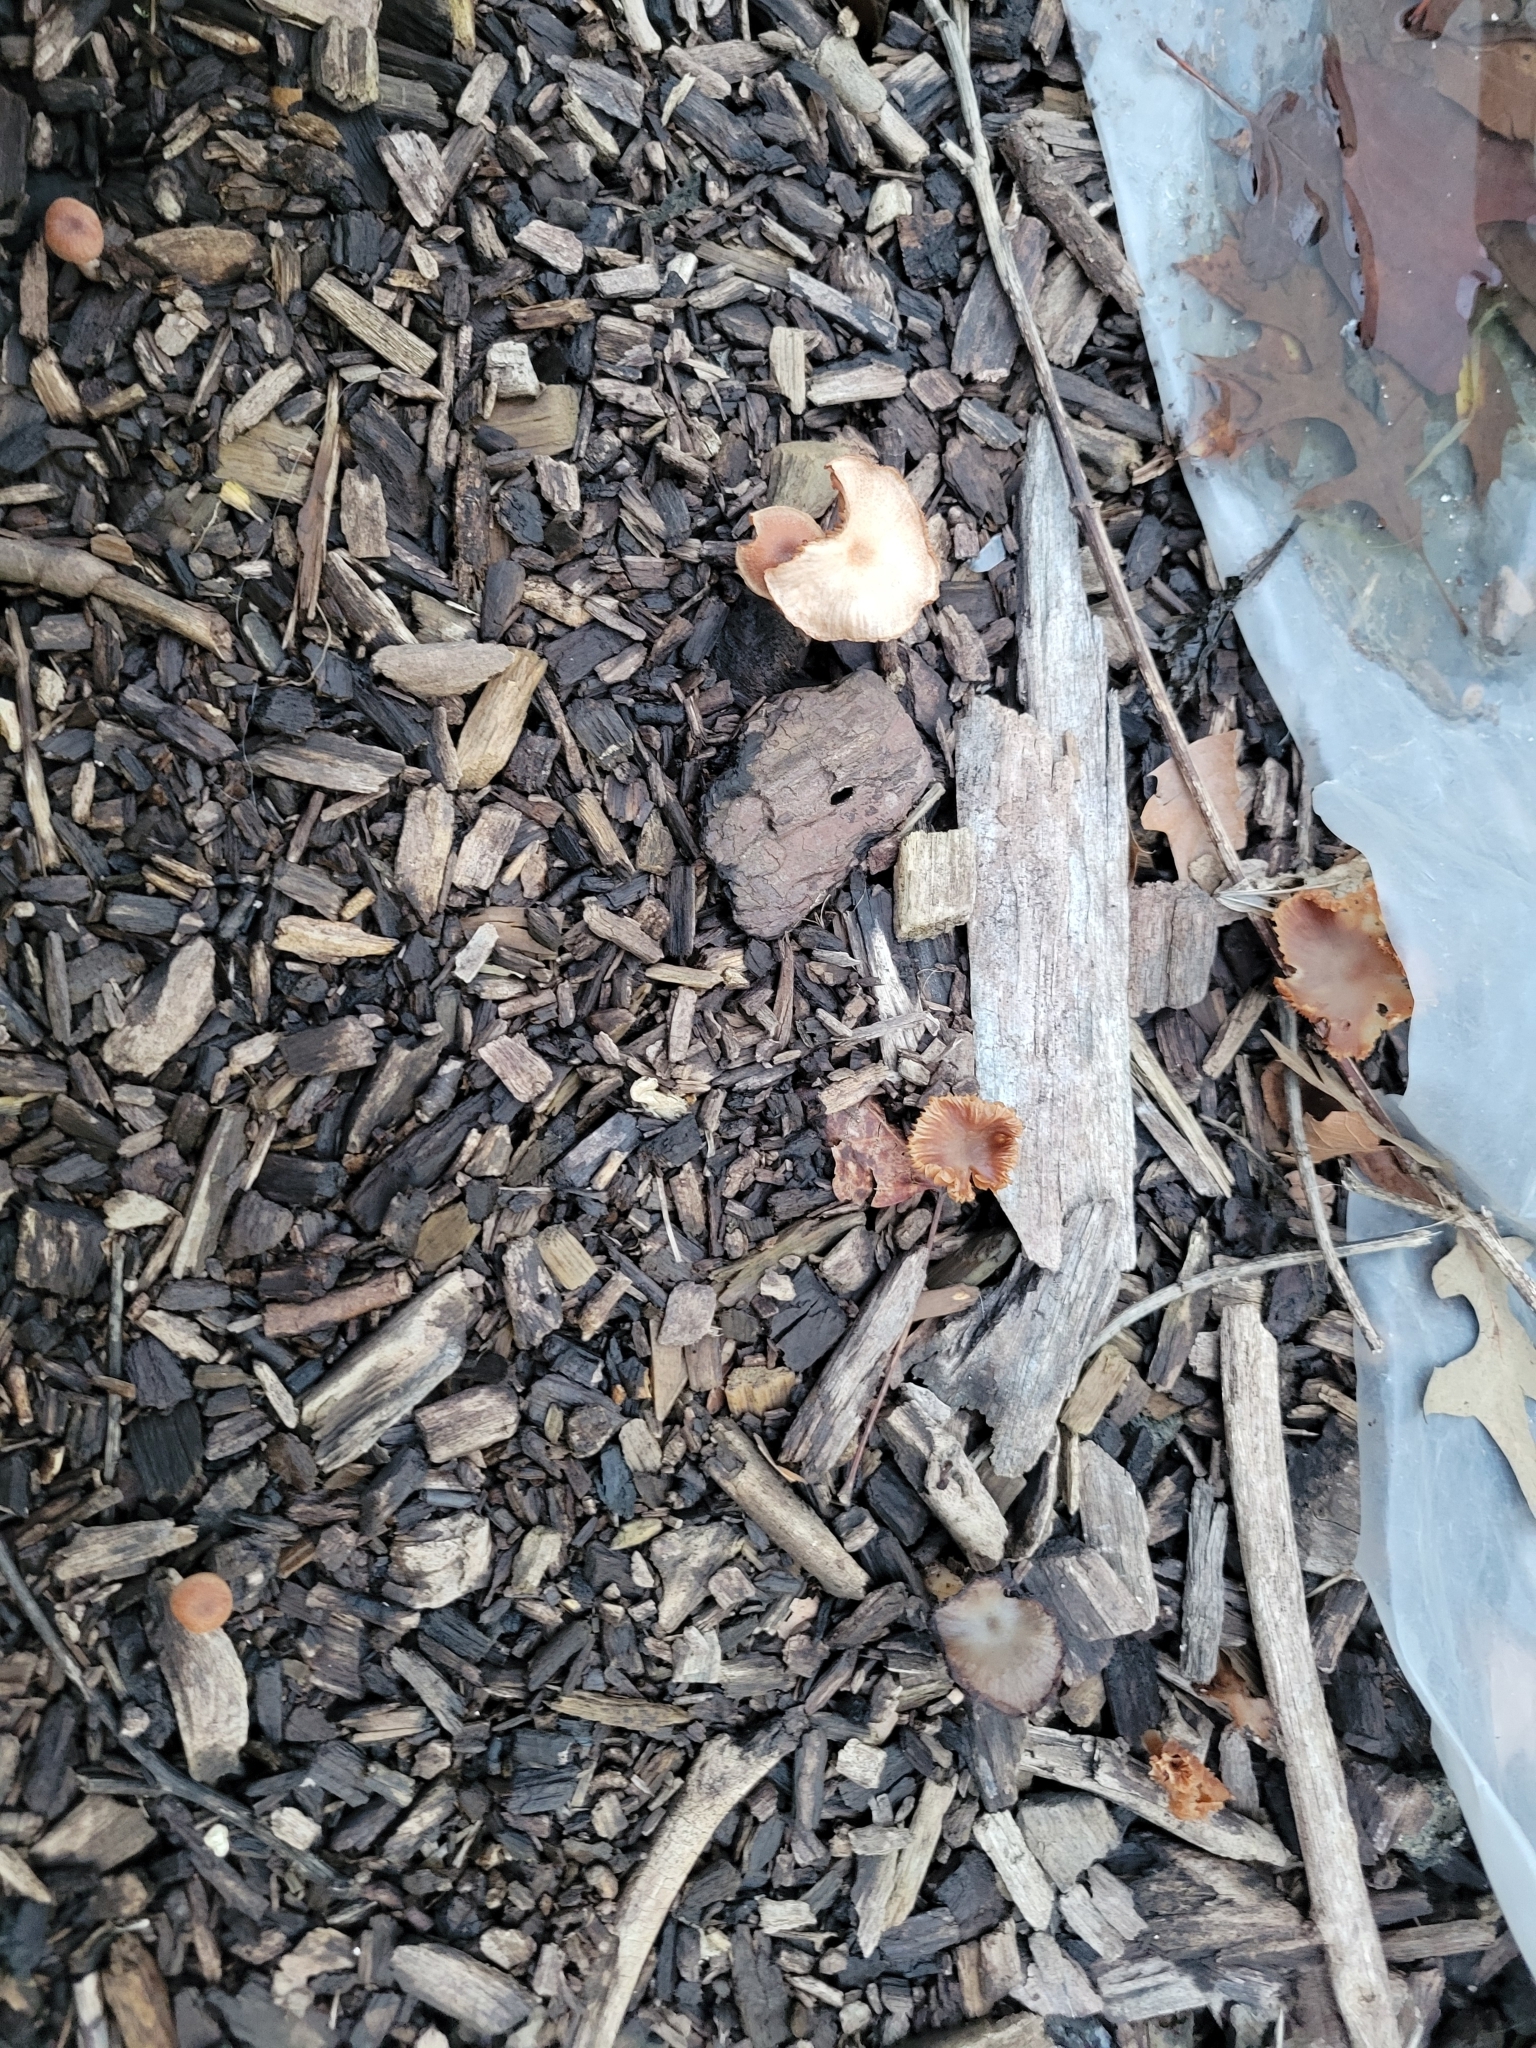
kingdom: Fungi
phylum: Basidiomycota
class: Agaricomycetes
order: Agaricales
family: Tubariaceae
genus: Tubaria
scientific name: Tubaria furfuracea
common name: Scurfy twiglet
